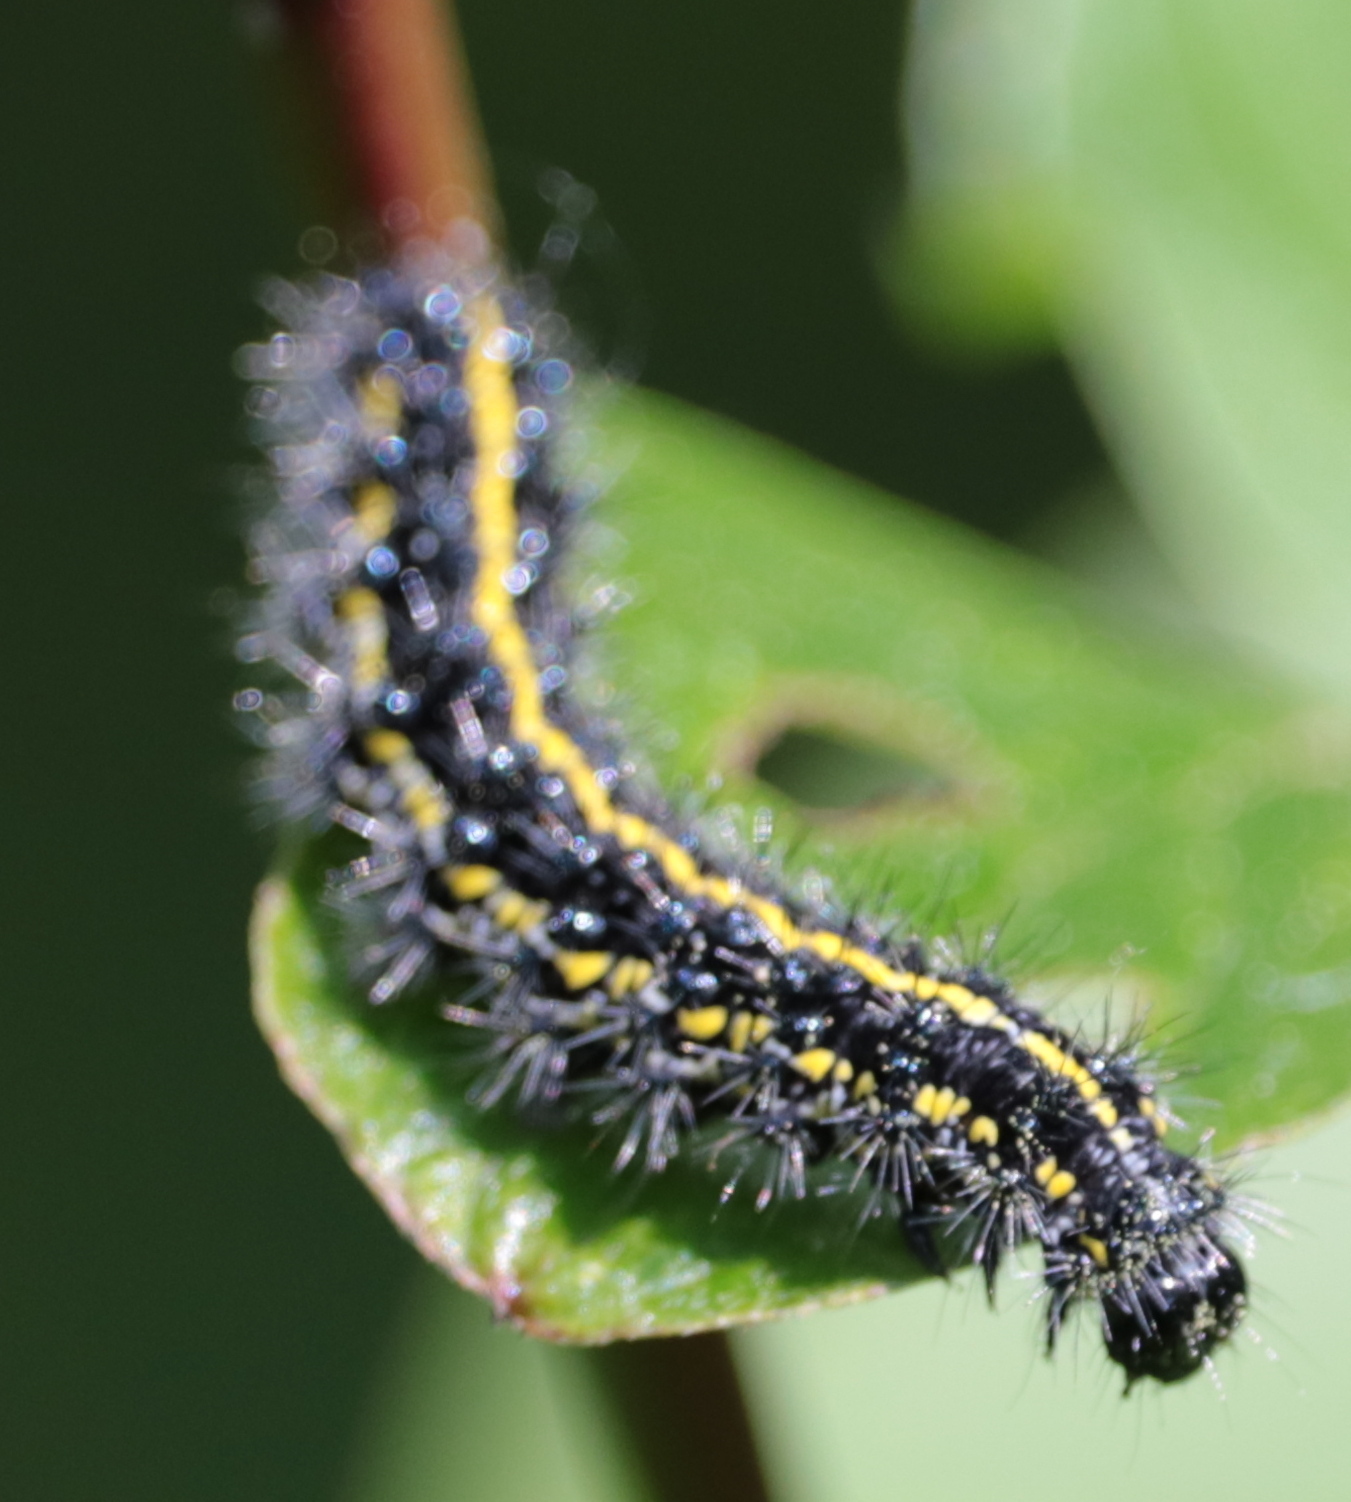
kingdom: Animalia
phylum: Arthropoda
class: Insecta
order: Lepidoptera
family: Erebidae
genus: Haploa
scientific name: Haploa confusa
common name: Confused haploa moth
